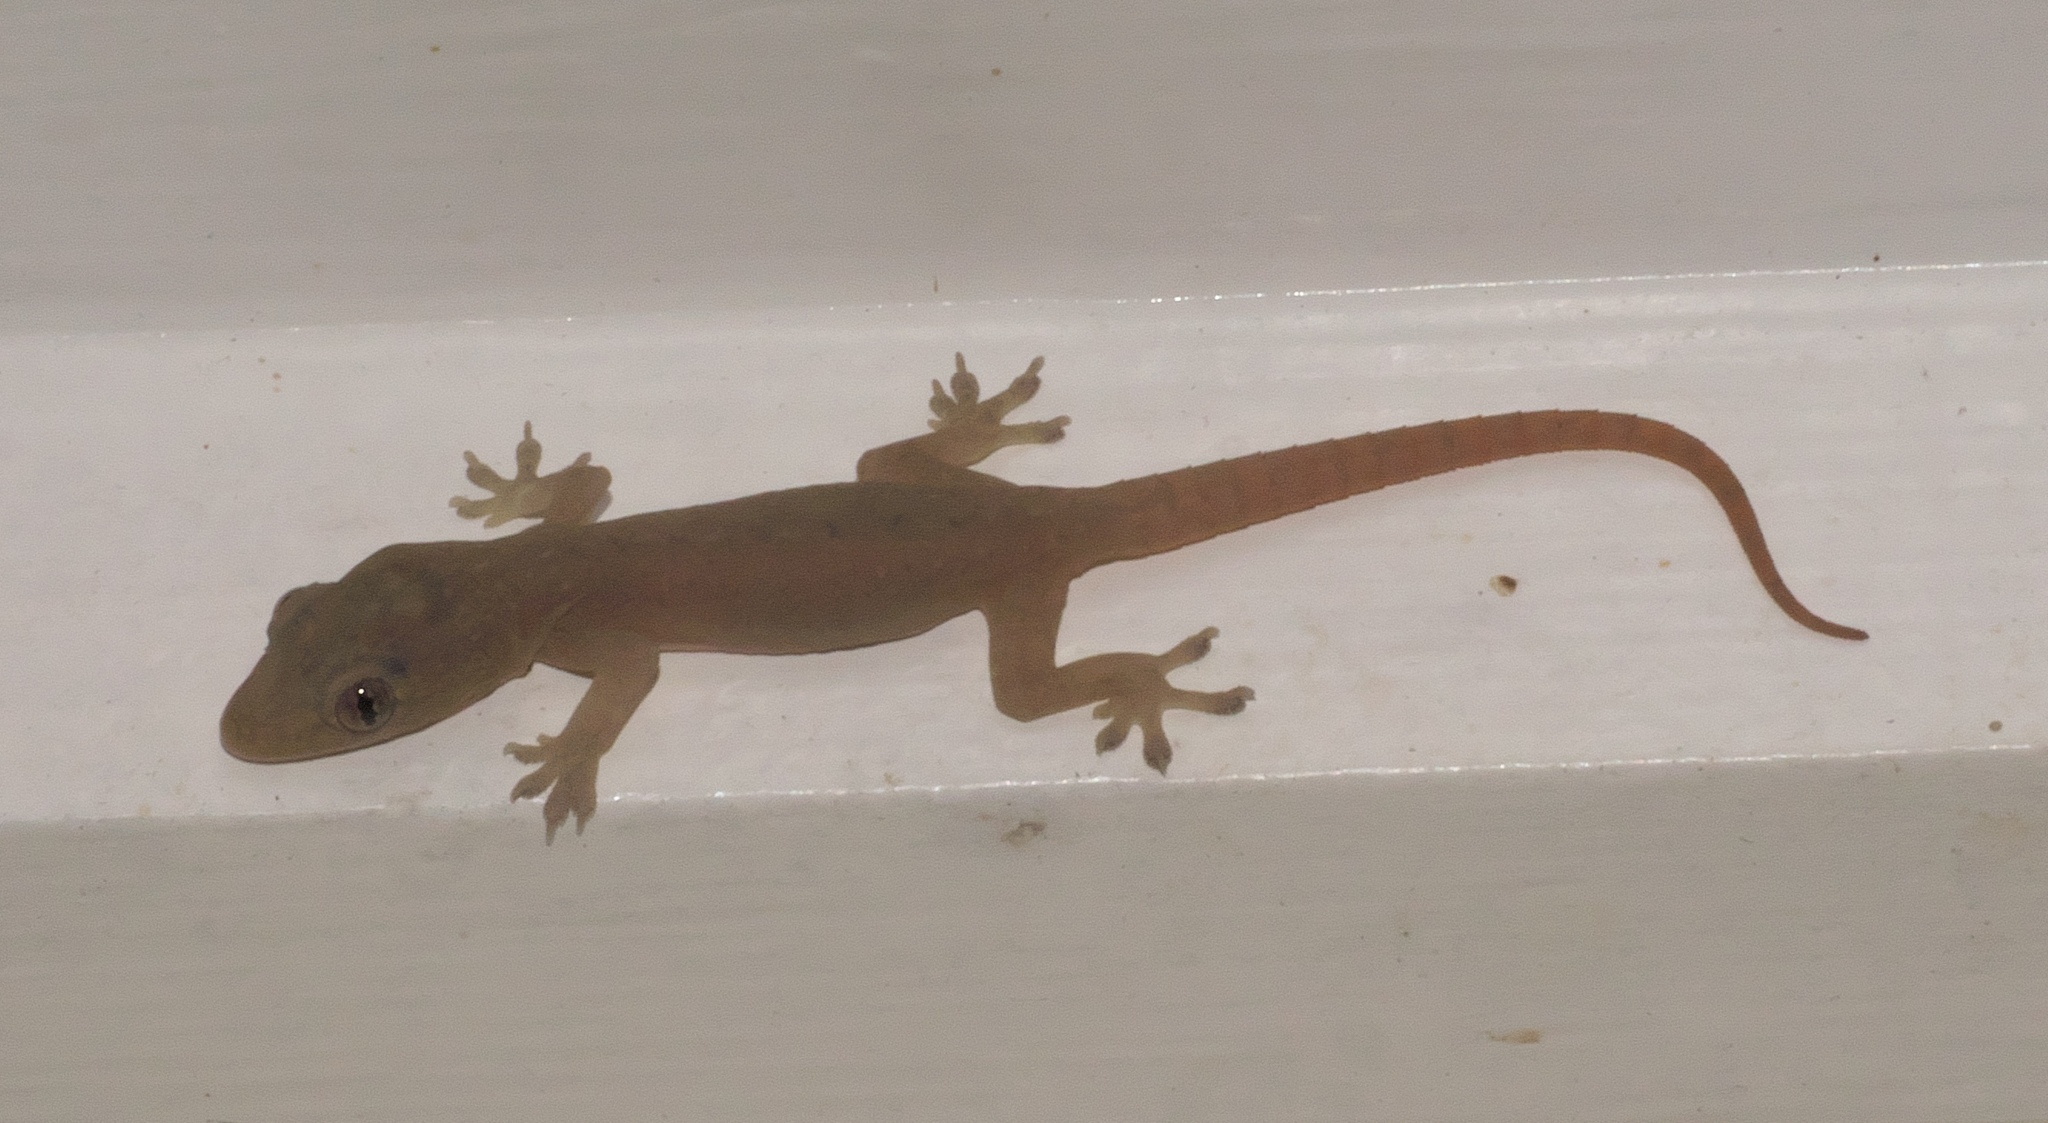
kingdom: Animalia
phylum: Chordata
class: Squamata
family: Gekkonidae
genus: Hemidactylus
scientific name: Hemidactylus frenatus
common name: Common house gecko
